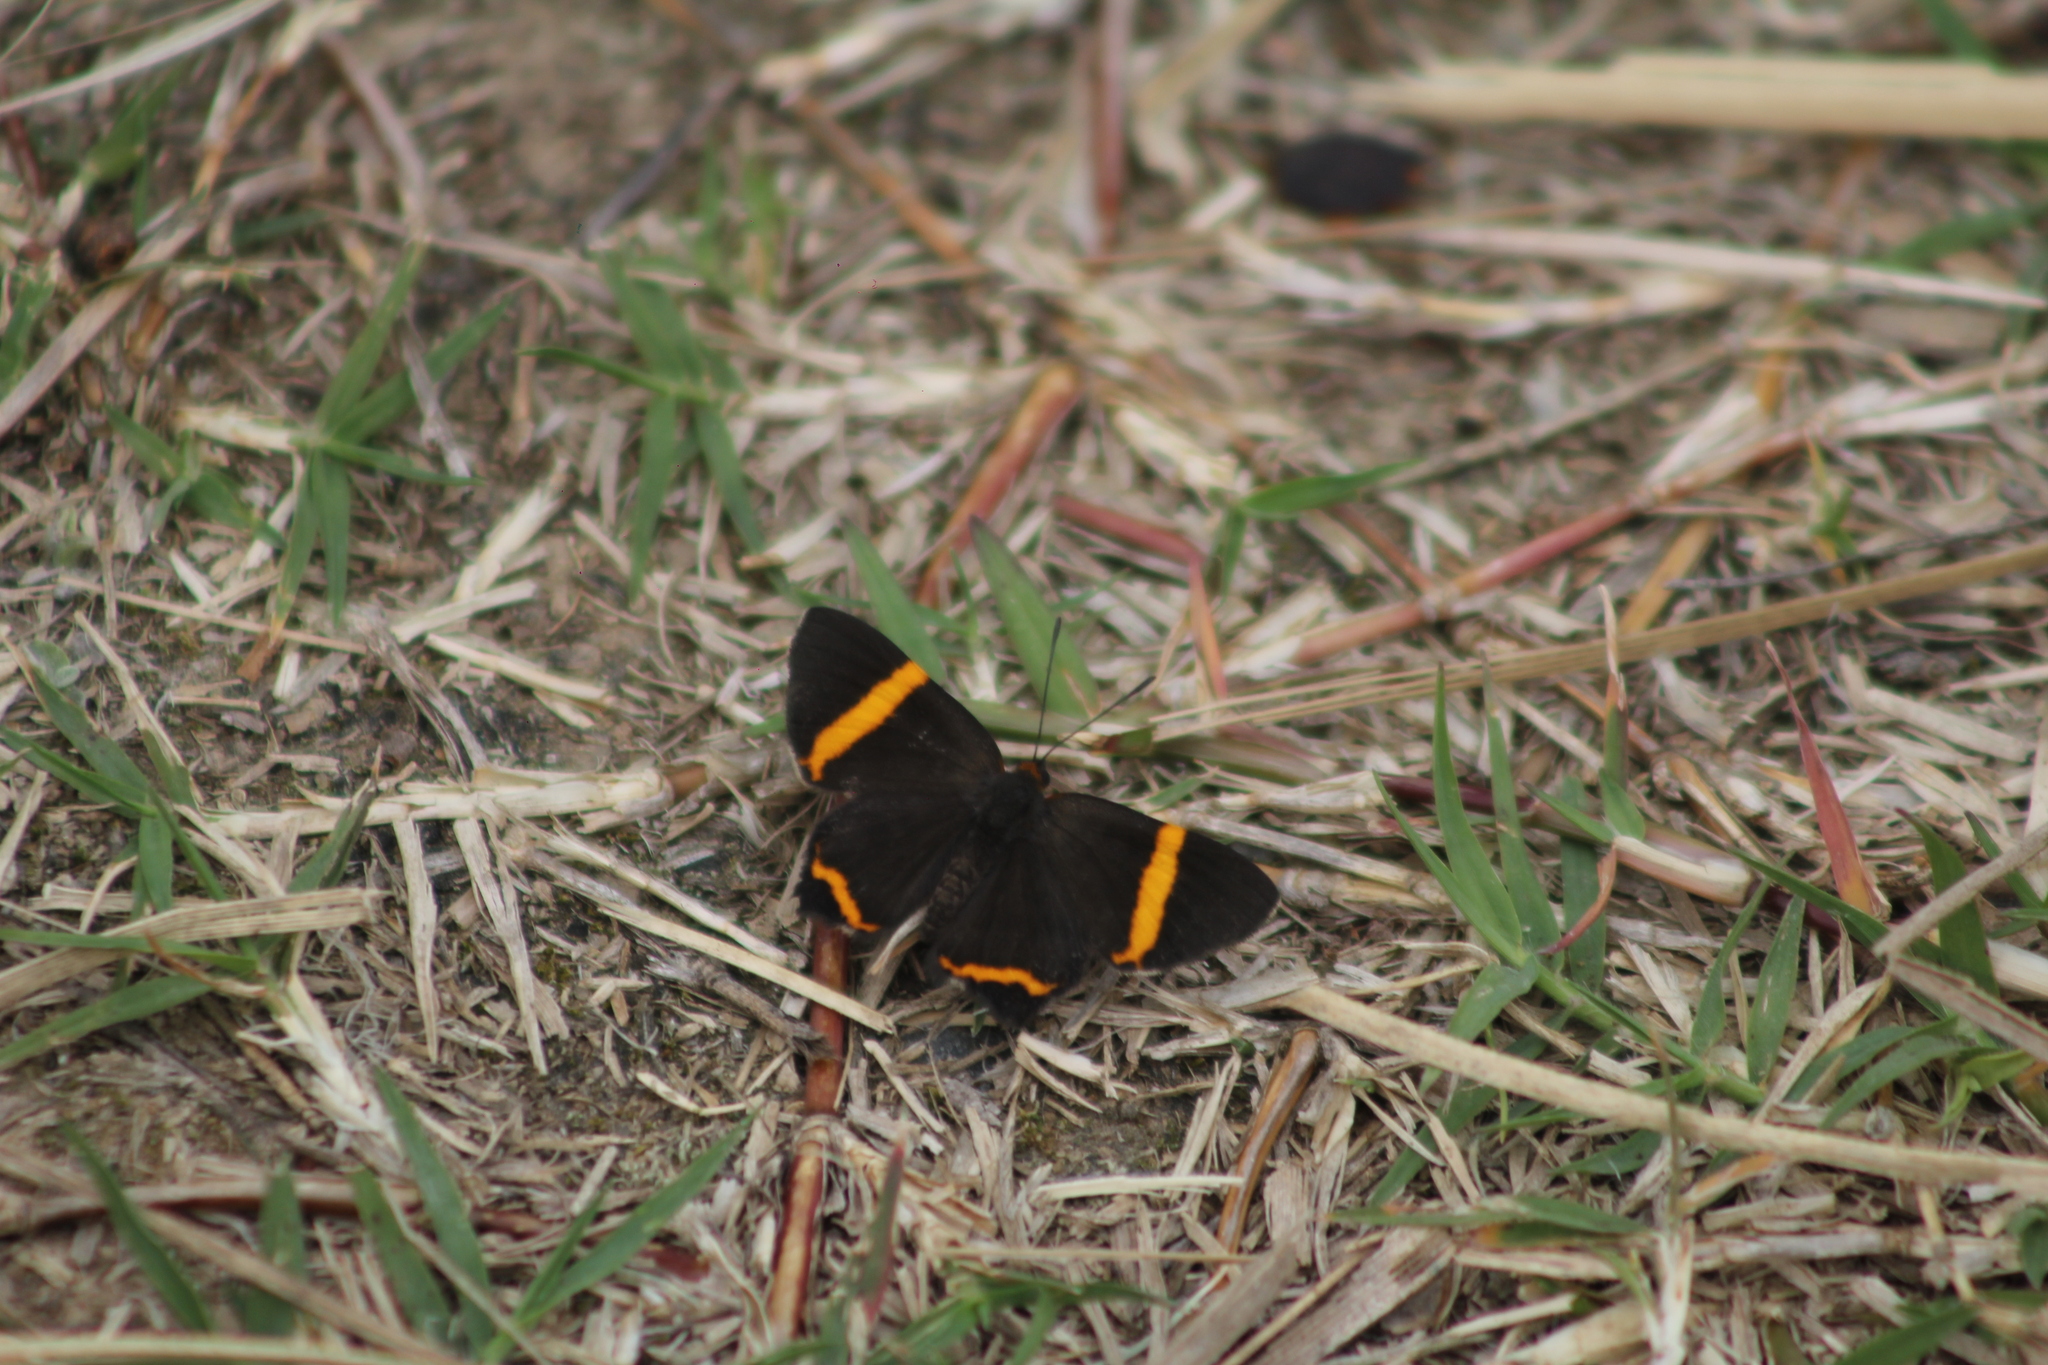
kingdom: Animalia
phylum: Arthropoda
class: Insecta
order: Lepidoptera
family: Riodinidae
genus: Riodina
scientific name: Riodina lysippoides
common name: Little dancer metalmark
